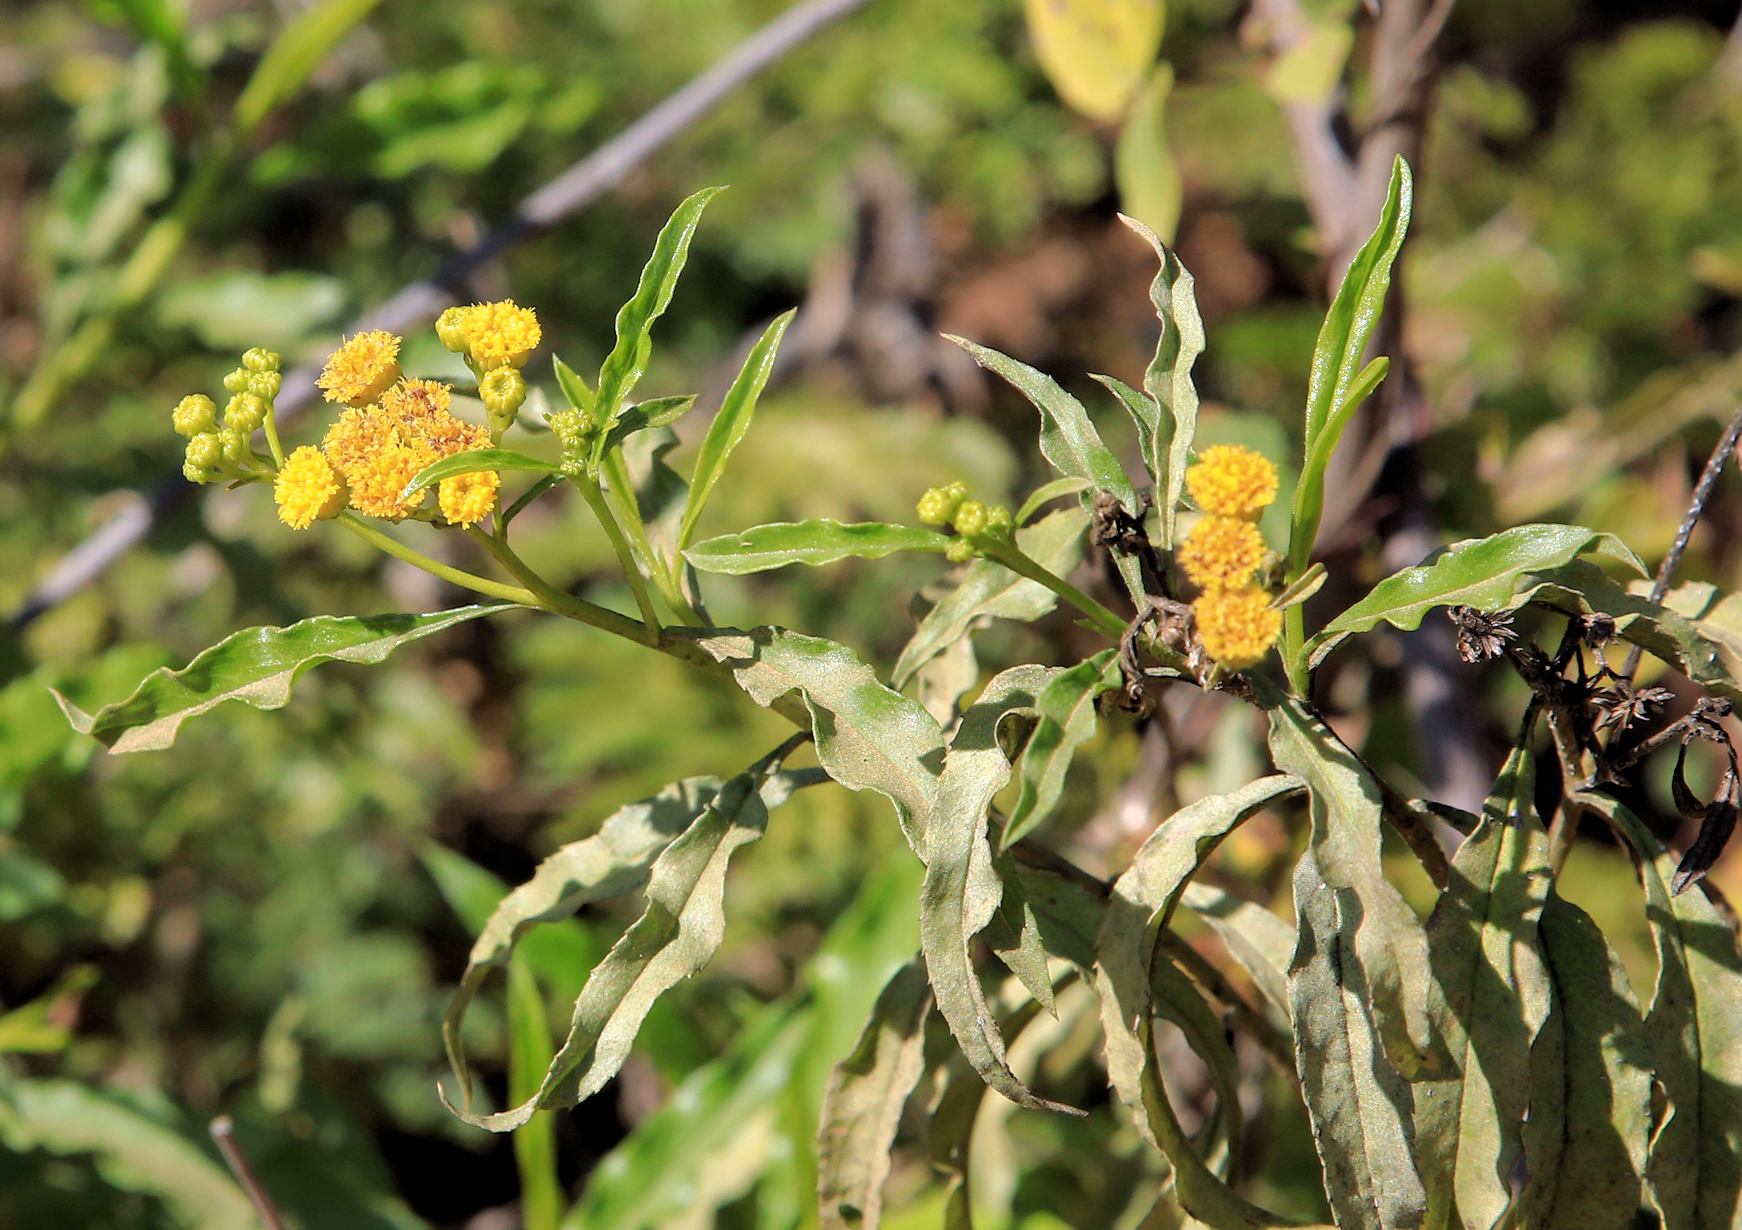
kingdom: Plantae
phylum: Tracheophyta
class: Magnoliopsida
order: Asterales
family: Asteraceae
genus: Psiadia
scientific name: Psiadia punctulata
